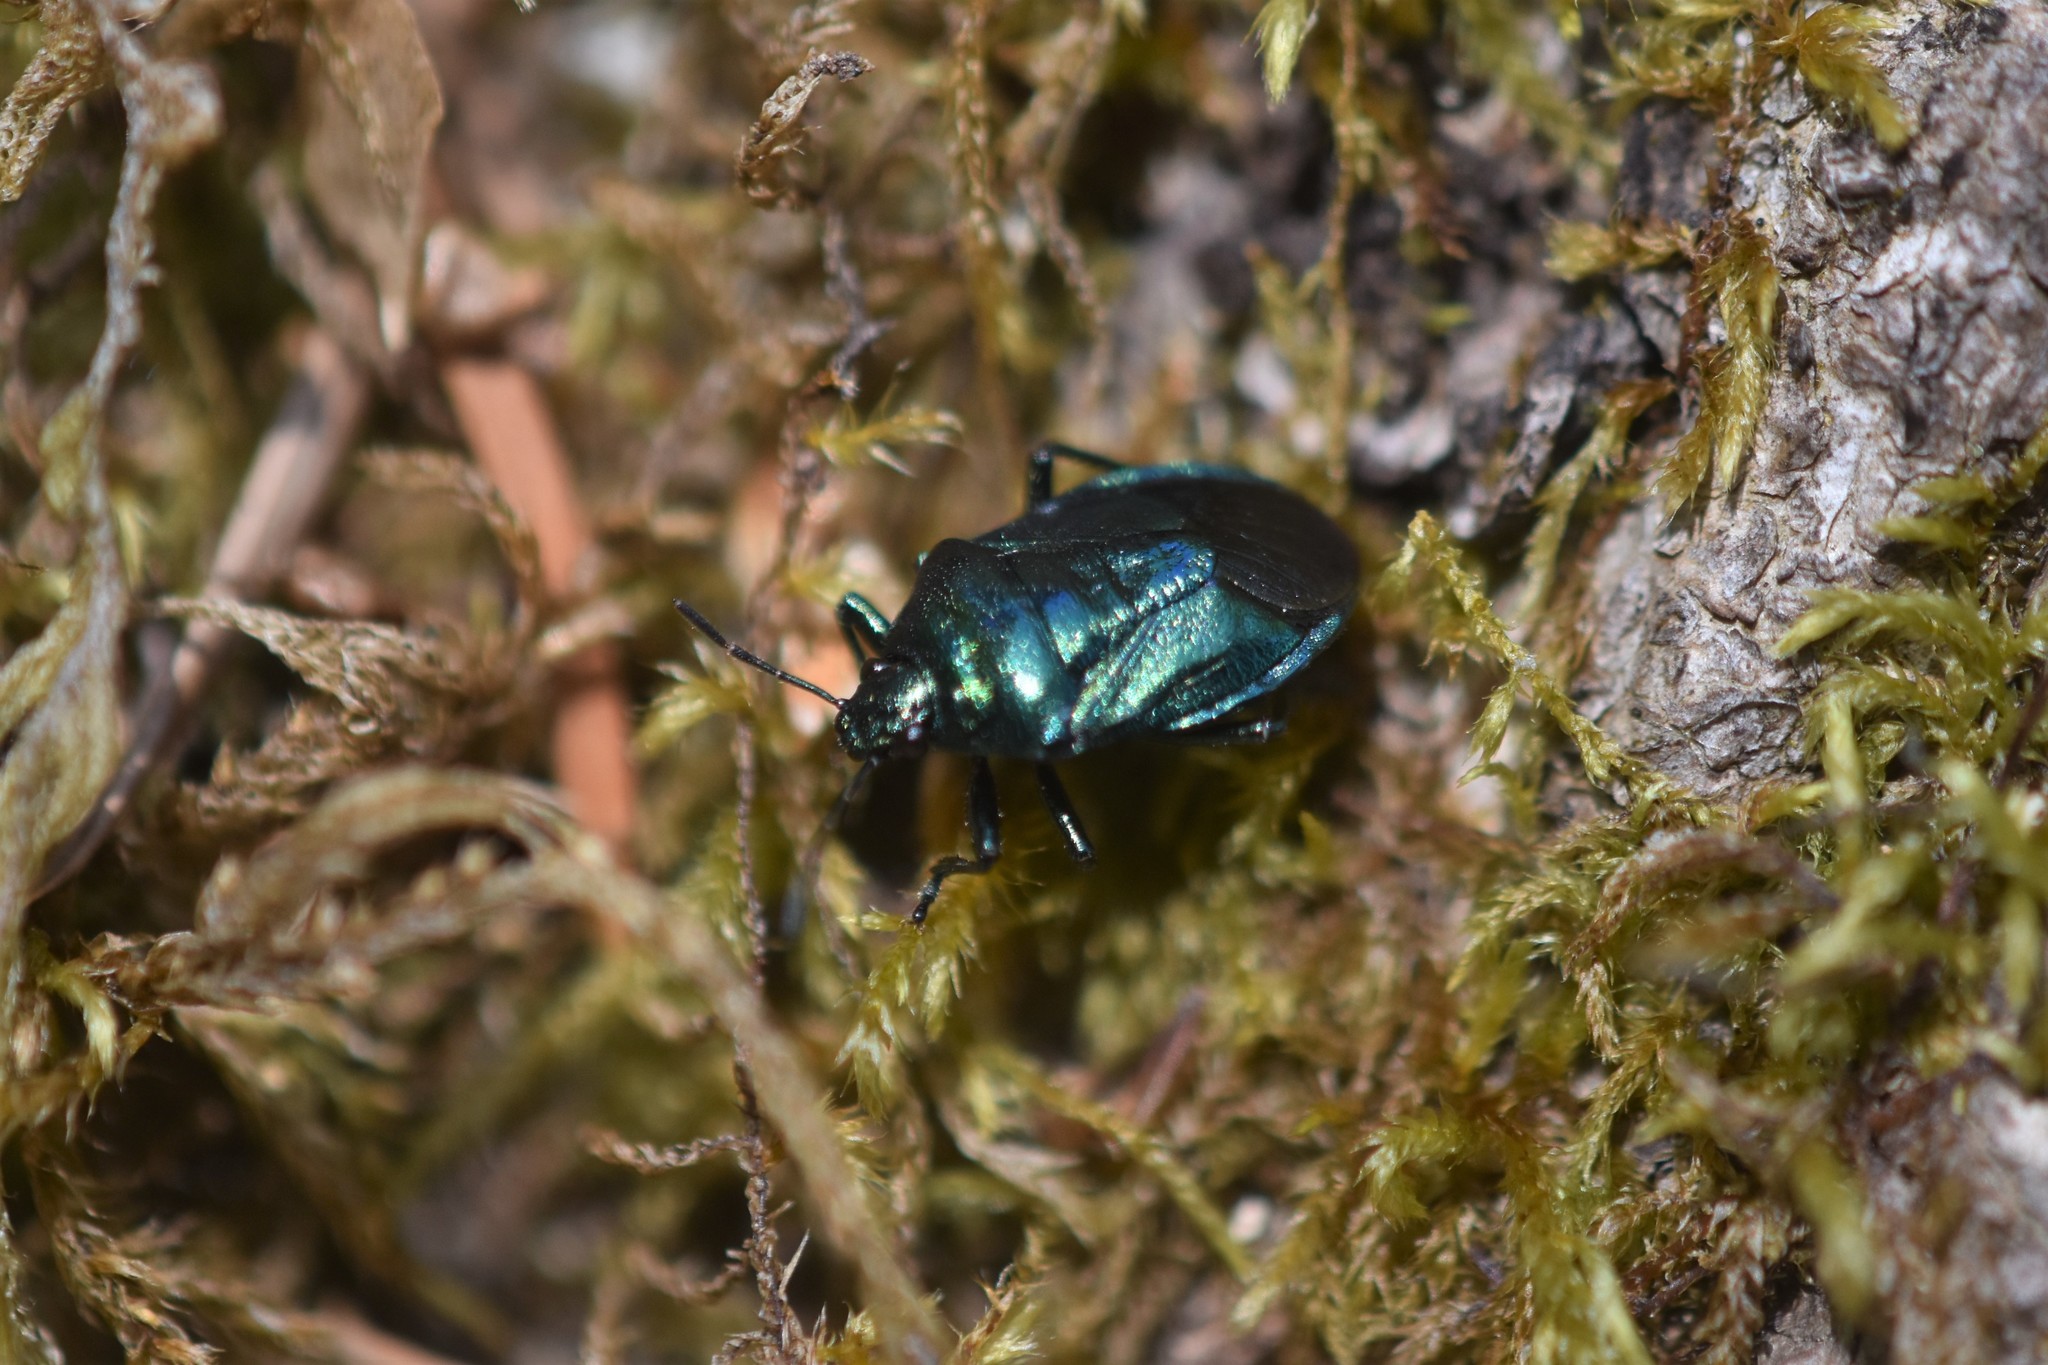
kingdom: Animalia
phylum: Arthropoda
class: Insecta
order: Hemiptera
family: Pentatomidae
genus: Zicrona
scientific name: Zicrona
